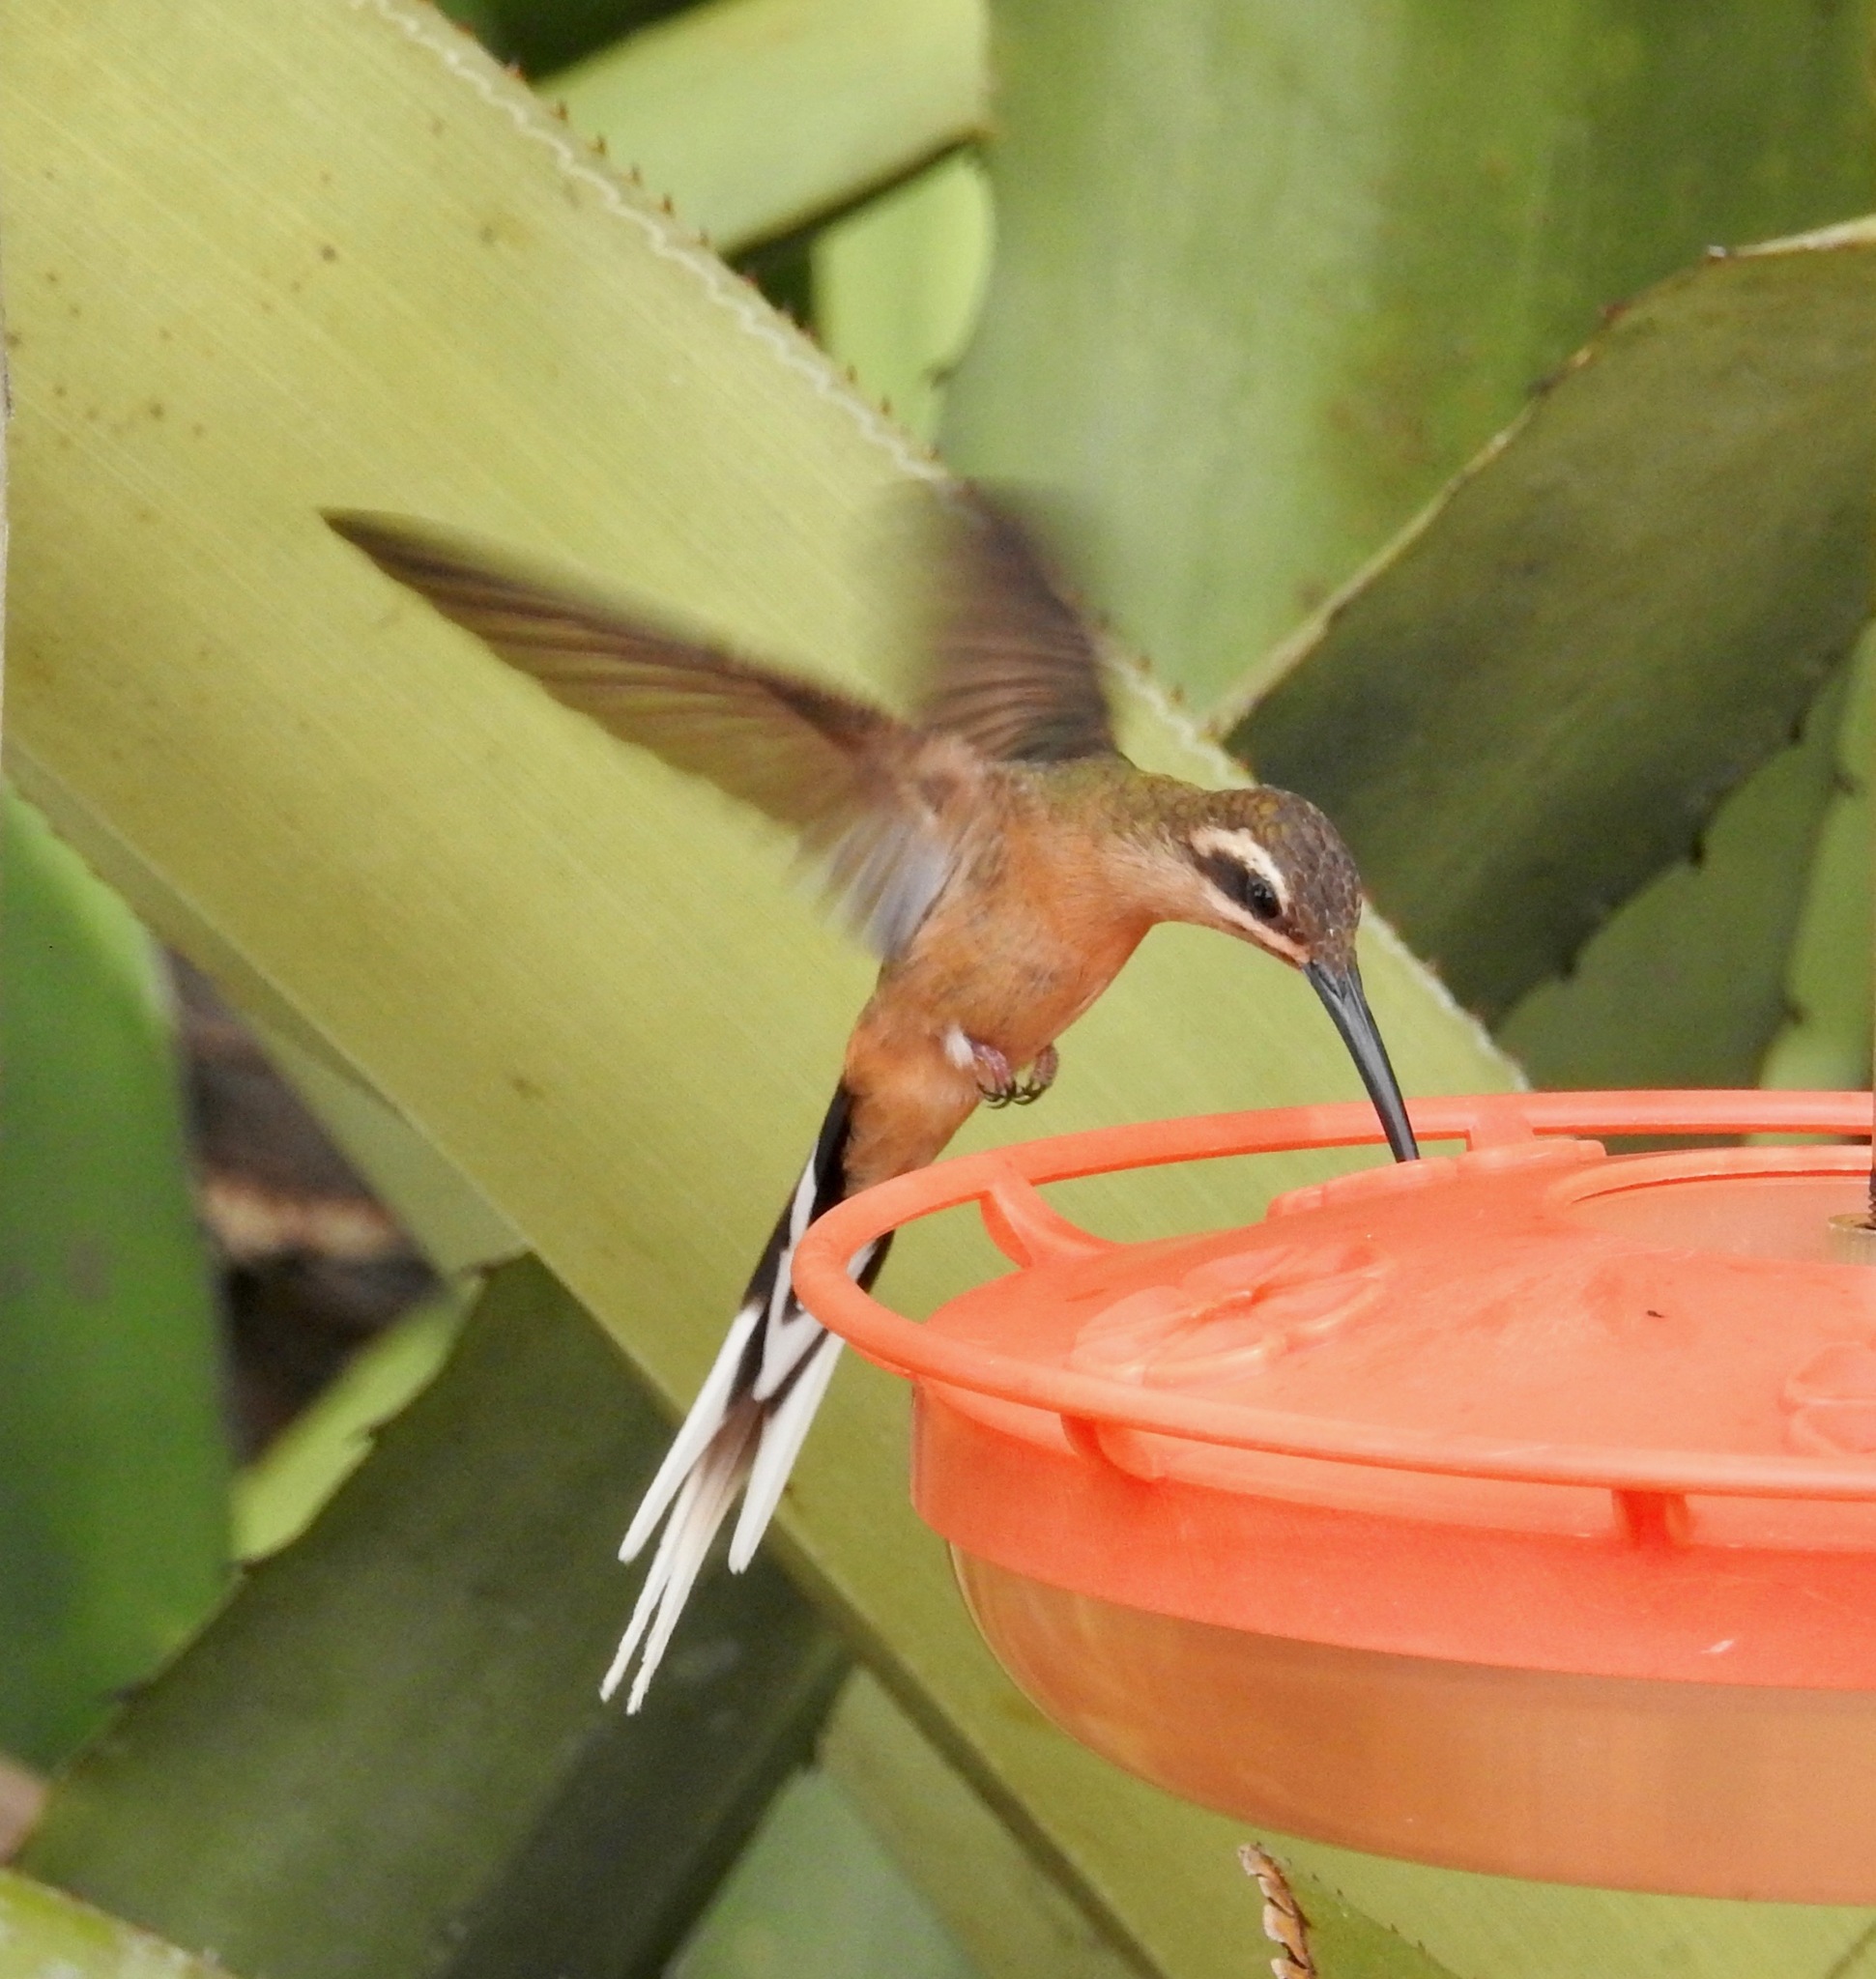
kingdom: Animalia
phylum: Chordata
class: Aves
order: Apodiformes
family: Trochilidae
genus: Phaethornis
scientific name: Phaethornis pretrei
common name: Planalto hermit
